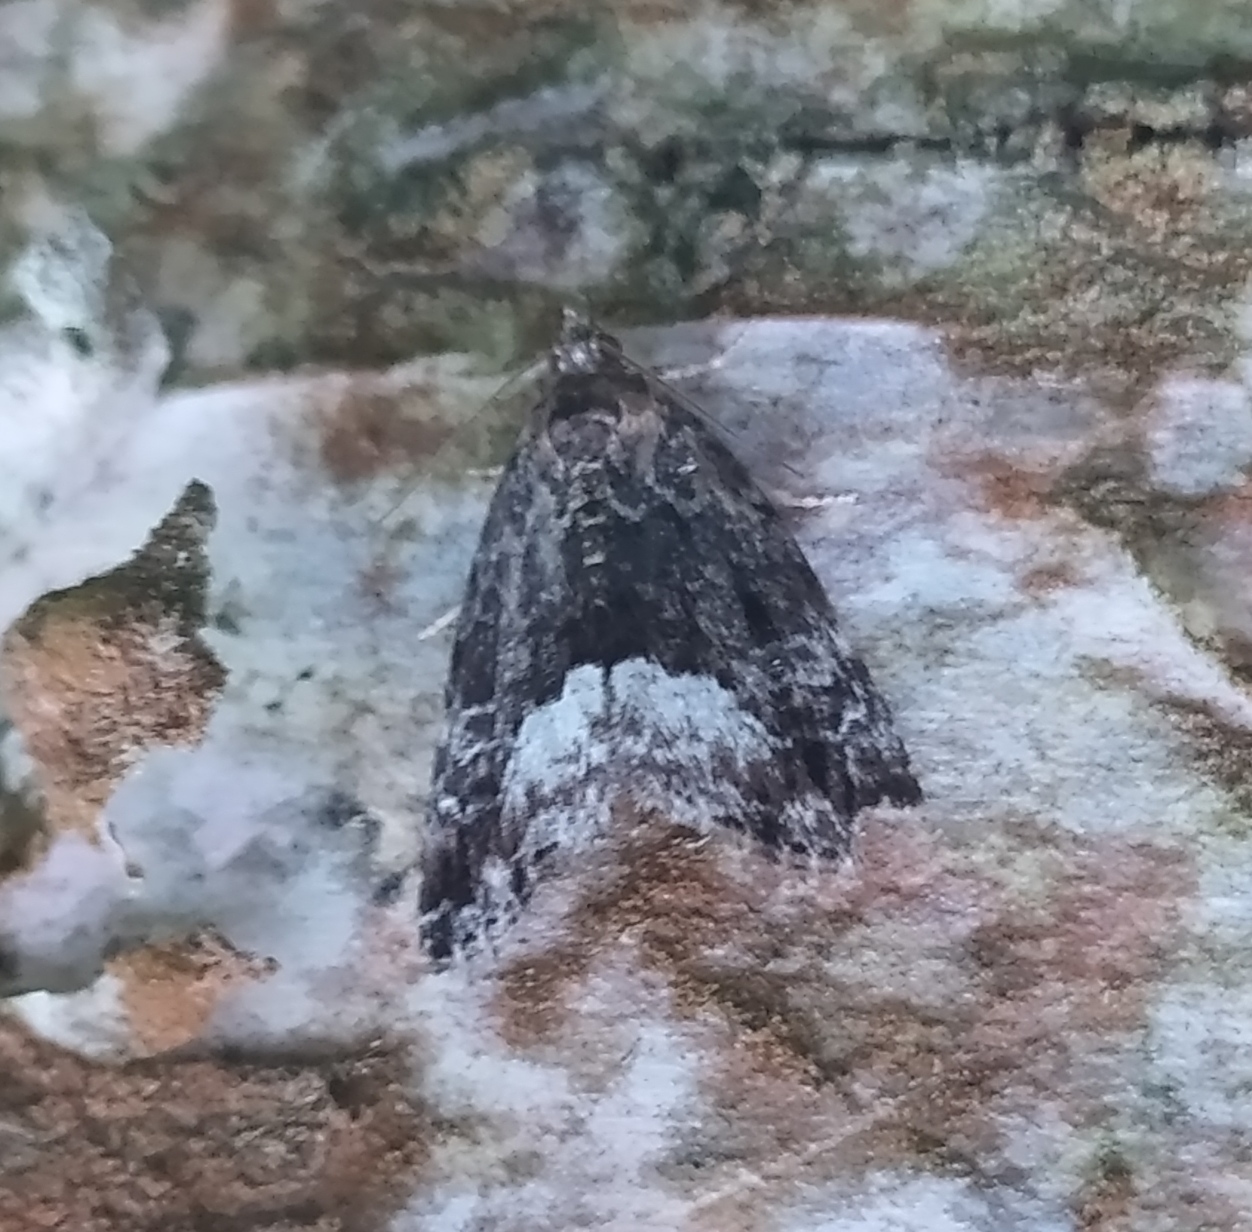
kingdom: Animalia
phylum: Arthropoda
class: Insecta
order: Lepidoptera
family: Noctuidae
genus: Deltote
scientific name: Deltote pygarga
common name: Marbled white spot
